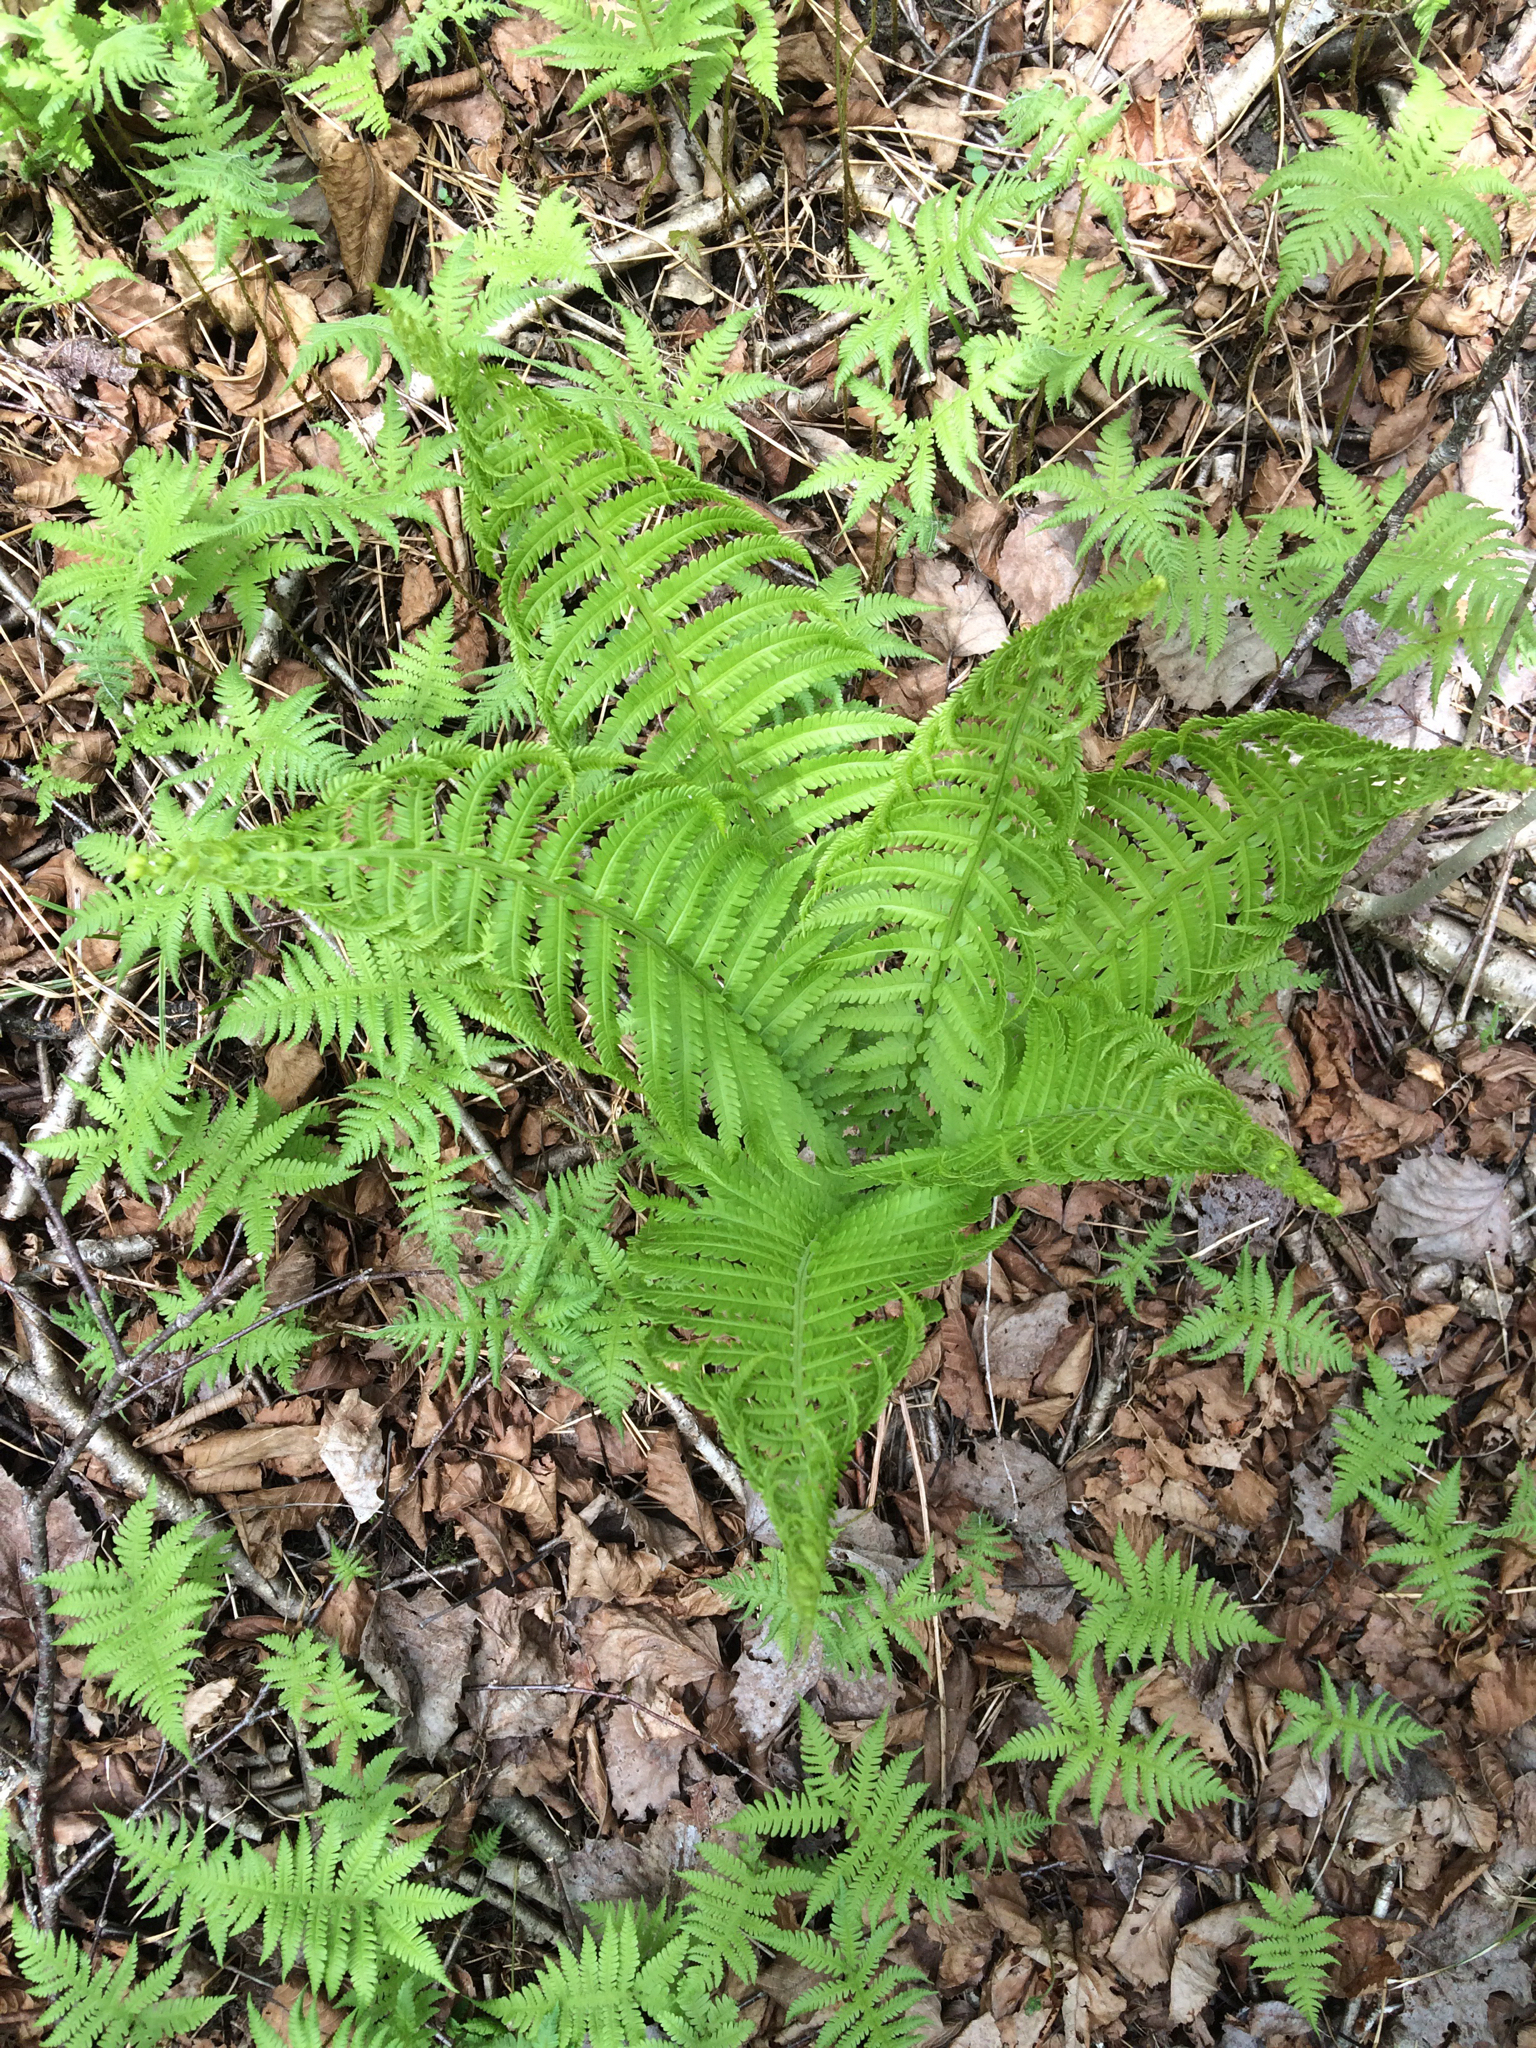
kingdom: Plantae
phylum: Tracheophyta
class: Polypodiopsida
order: Polypodiales
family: Onocleaceae
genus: Matteuccia
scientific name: Matteuccia struthiopteris
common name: Ostrich fern
